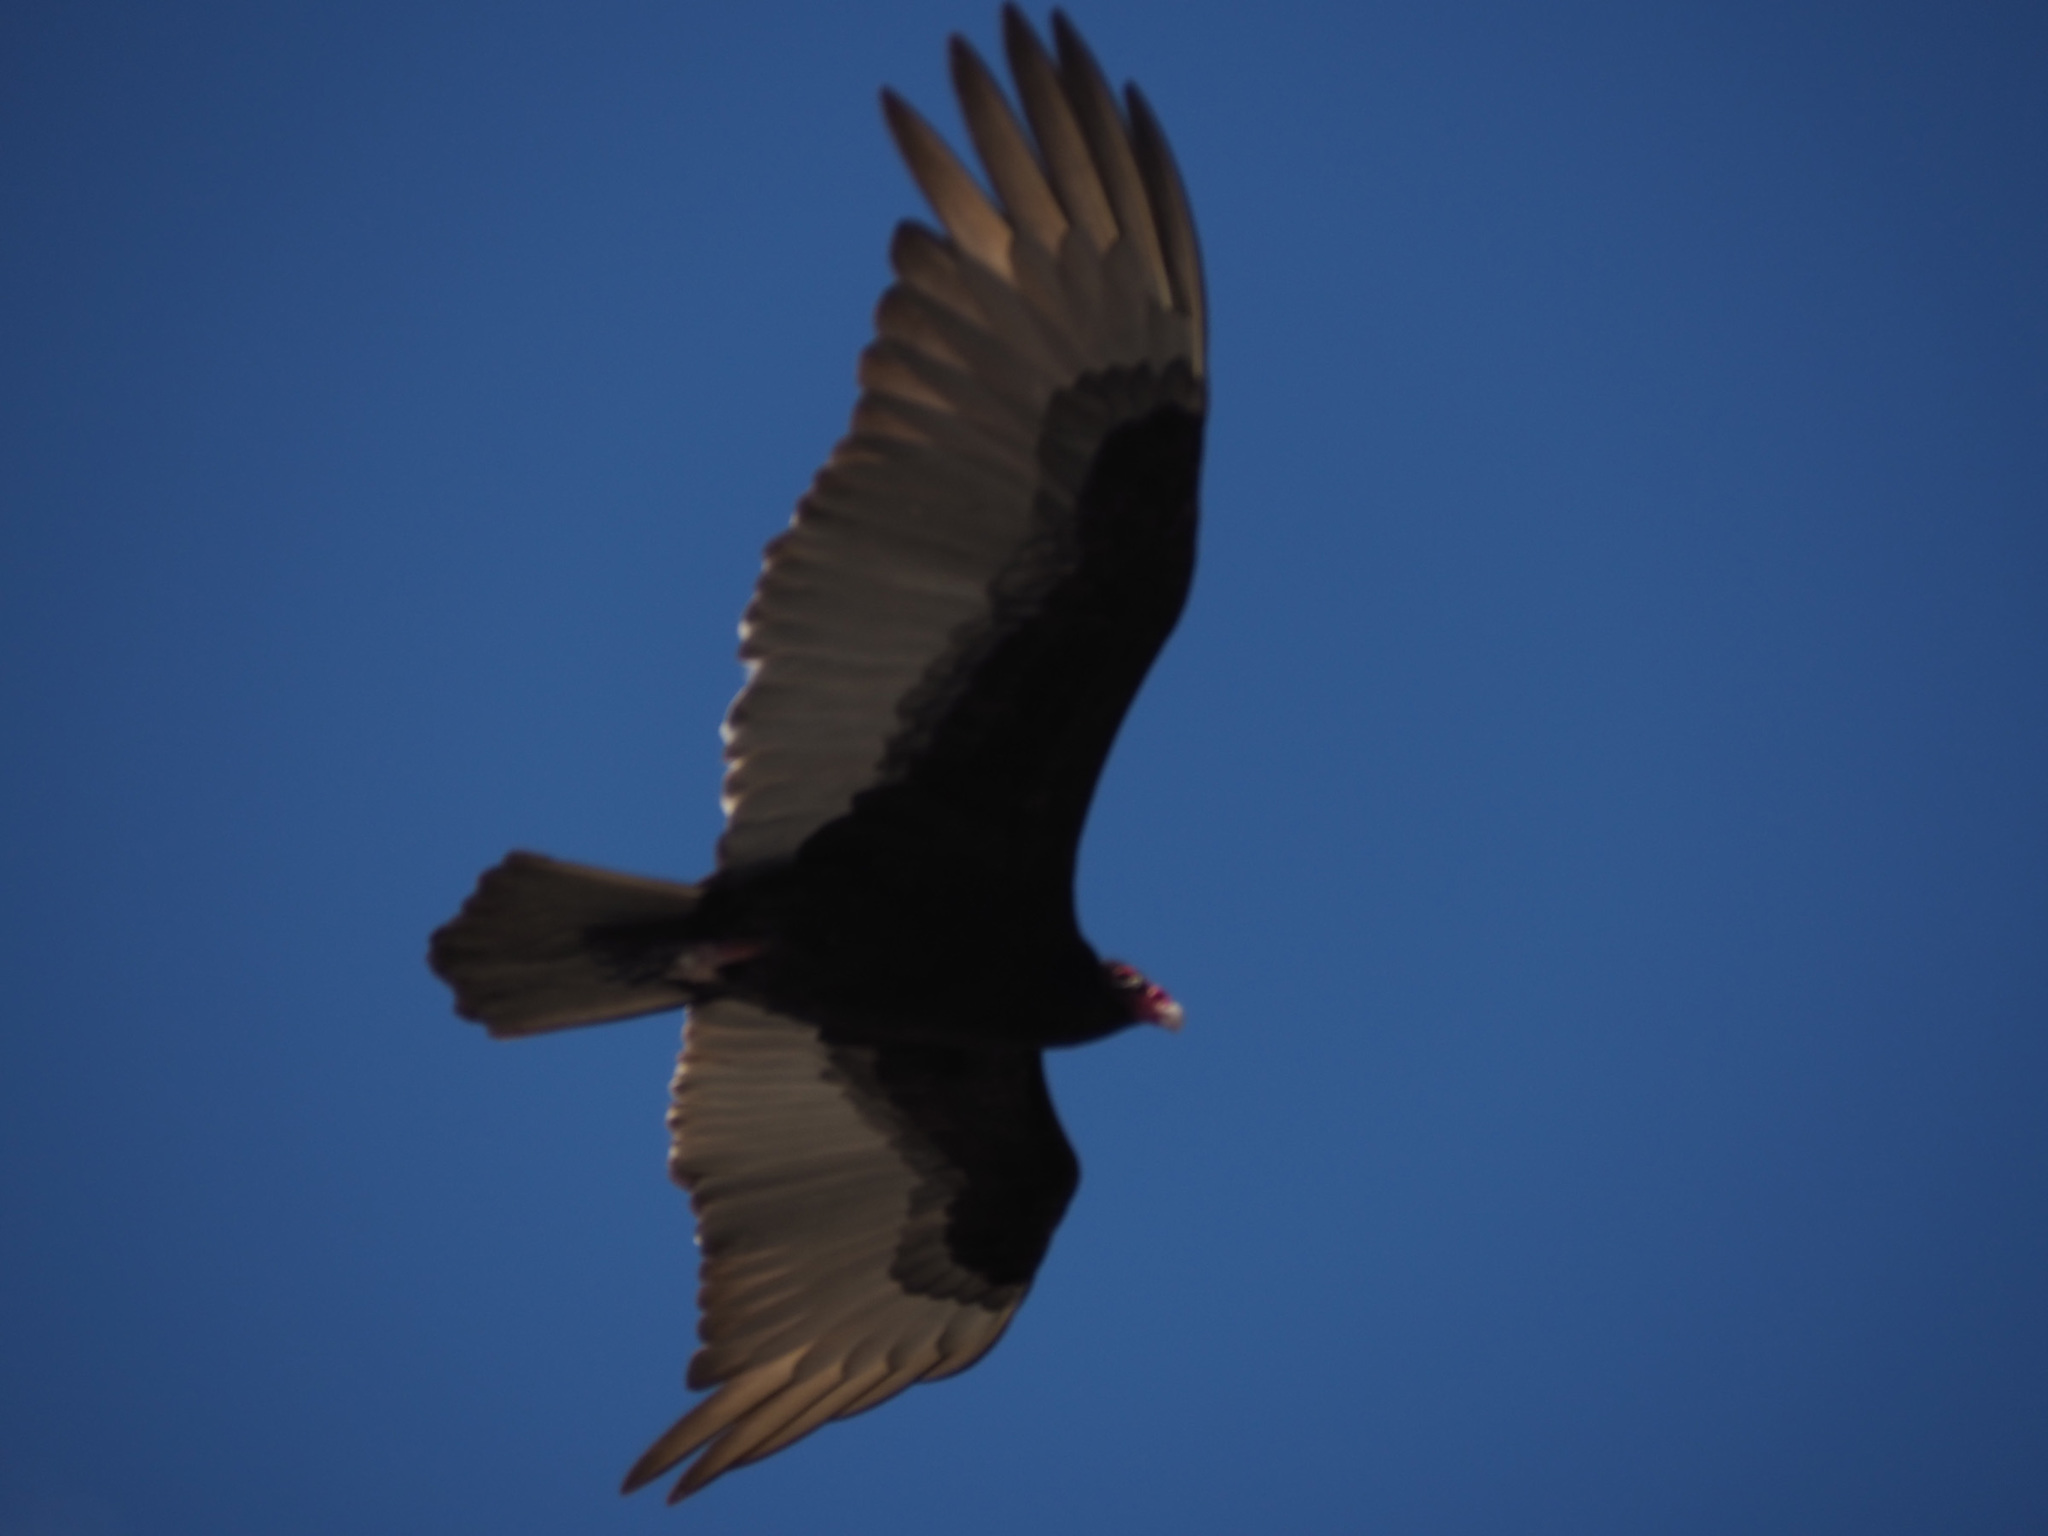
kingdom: Animalia
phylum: Chordata
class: Aves
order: Accipitriformes
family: Cathartidae
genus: Cathartes
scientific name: Cathartes aura
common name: Turkey vulture
